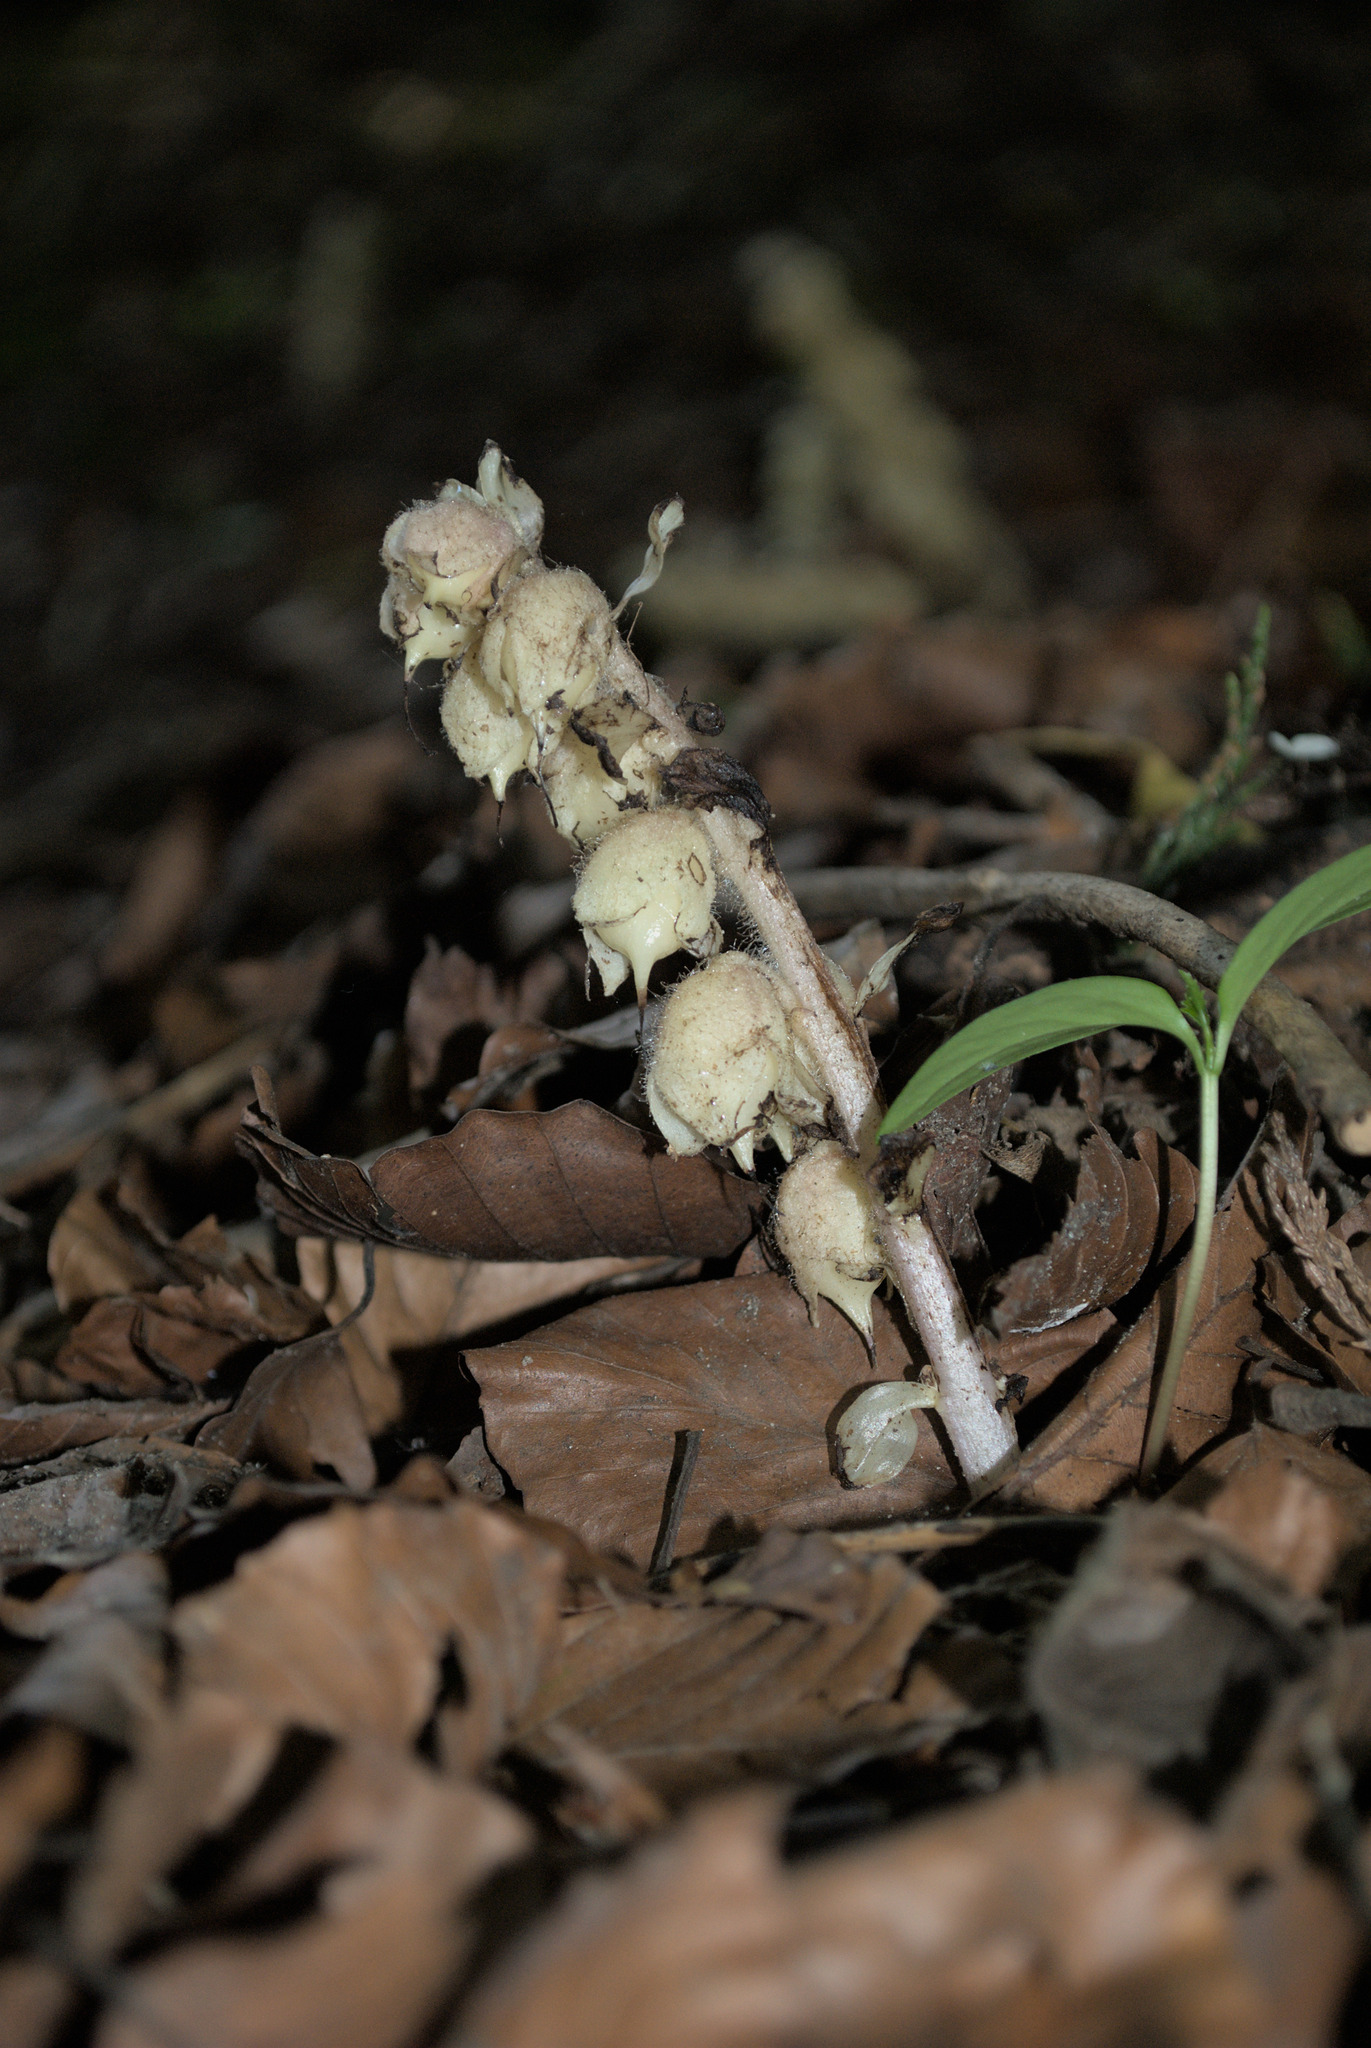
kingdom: Plantae
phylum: Tracheophyta
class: Magnoliopsida
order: Lamiales
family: Orobanchaceae
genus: Lathraea
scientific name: Lathraea squamaria
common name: Toothwort
